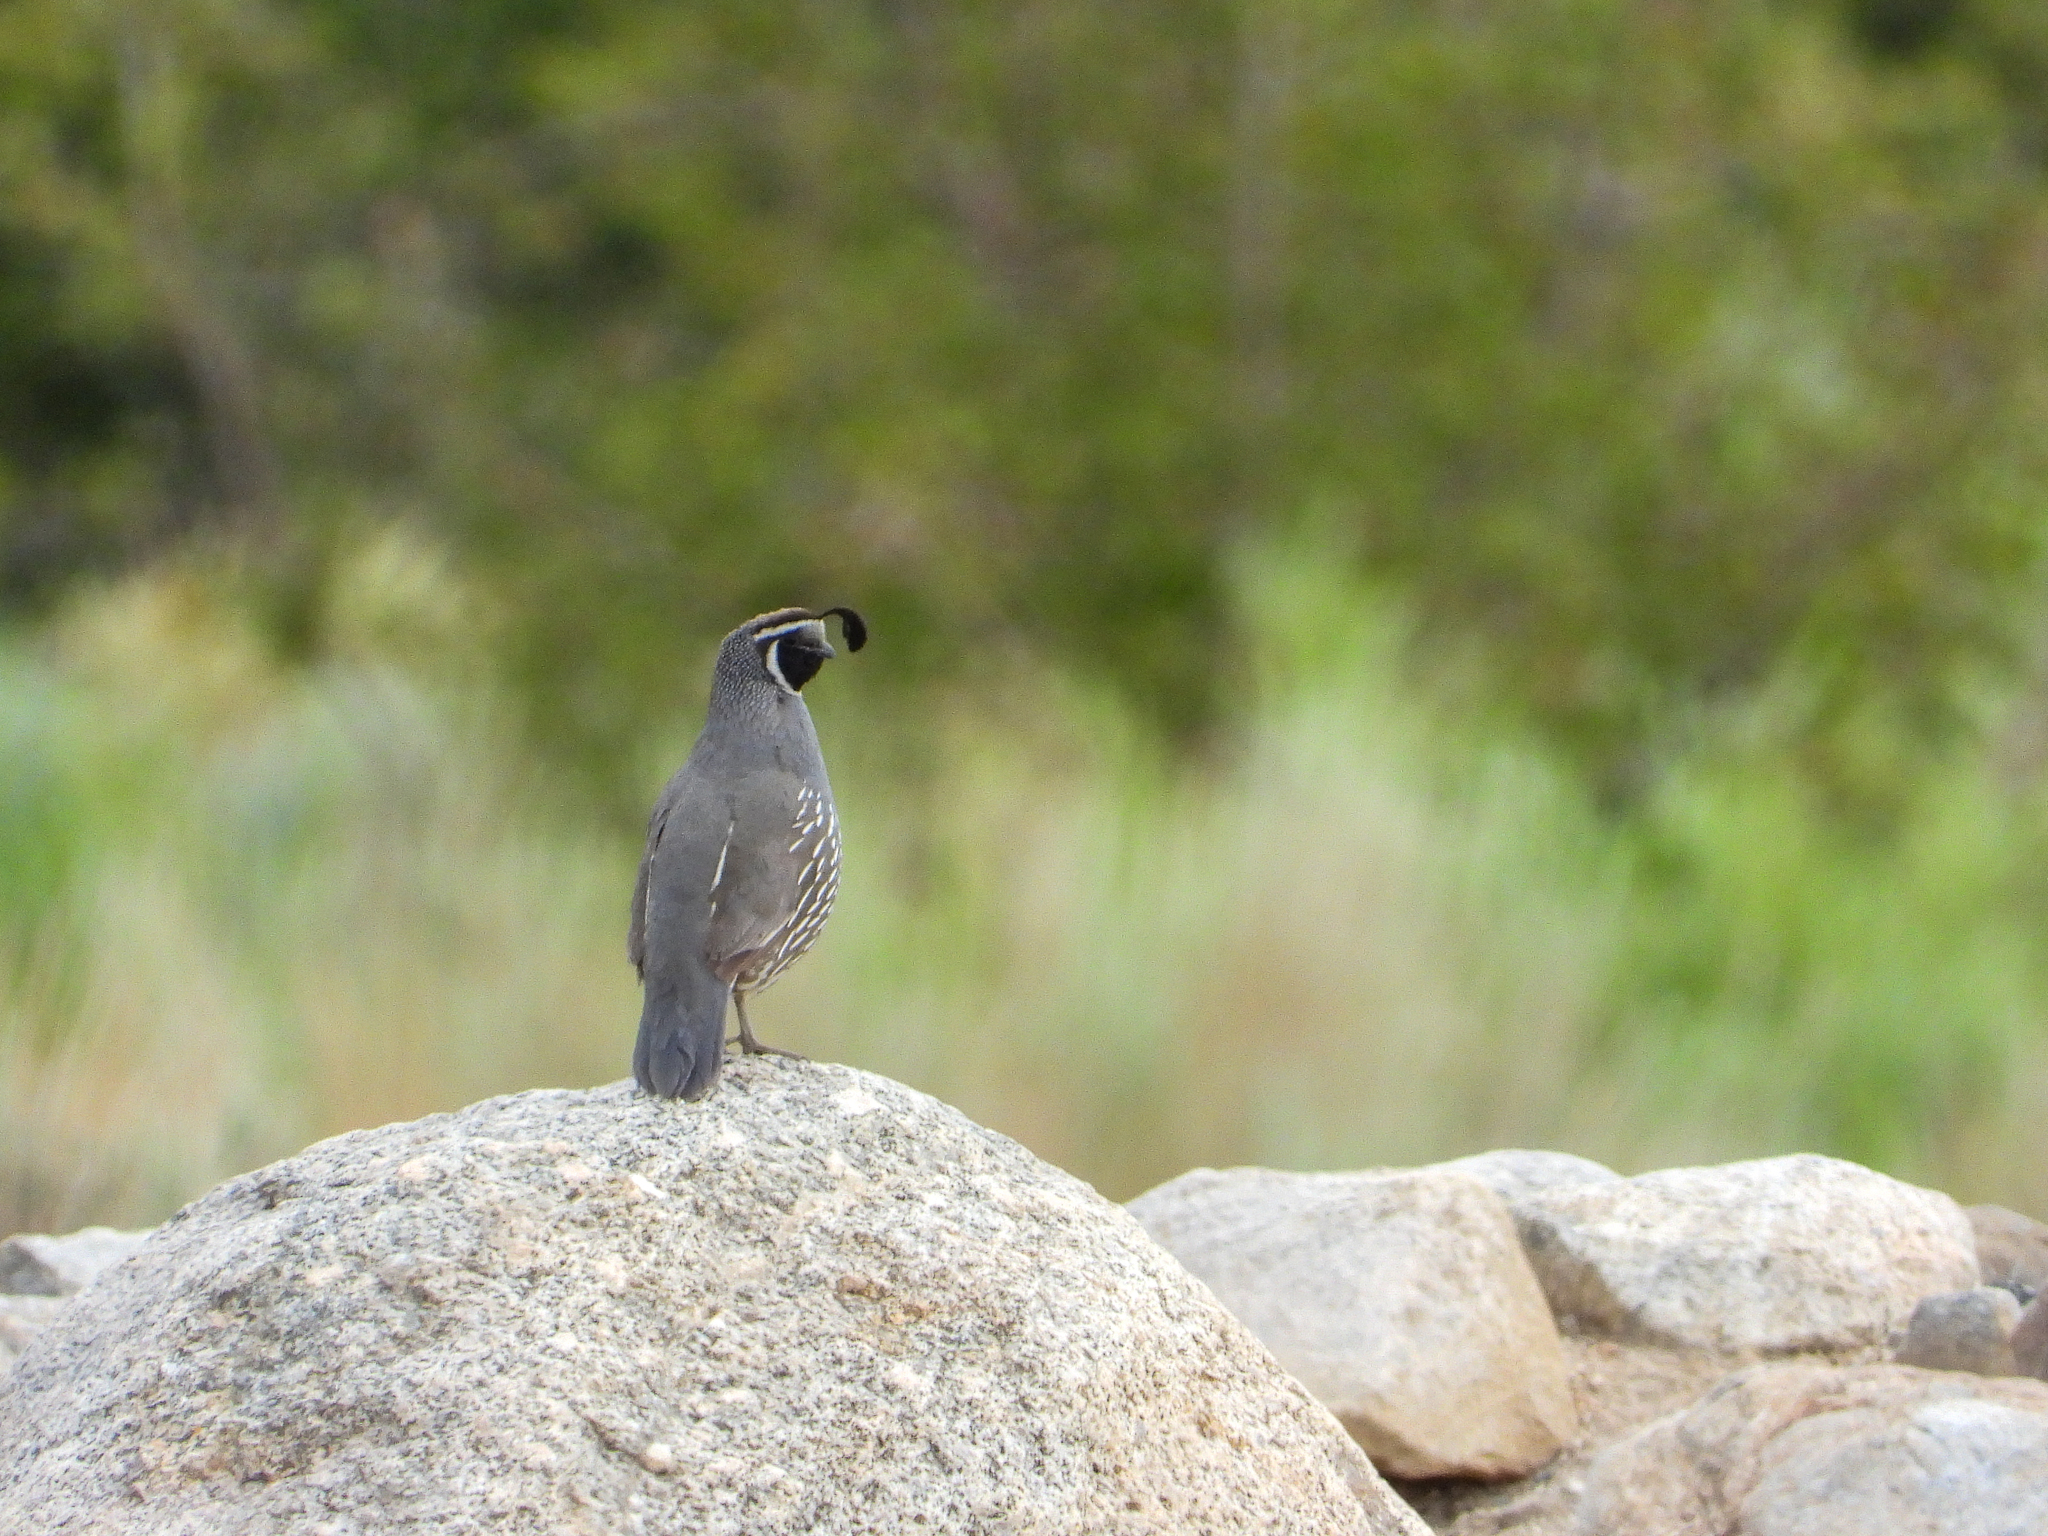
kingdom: Animalia
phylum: Chordata
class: Aves
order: Galliformes
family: Odontophoridae
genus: Callipepla
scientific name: Callipepla californica
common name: California quail
